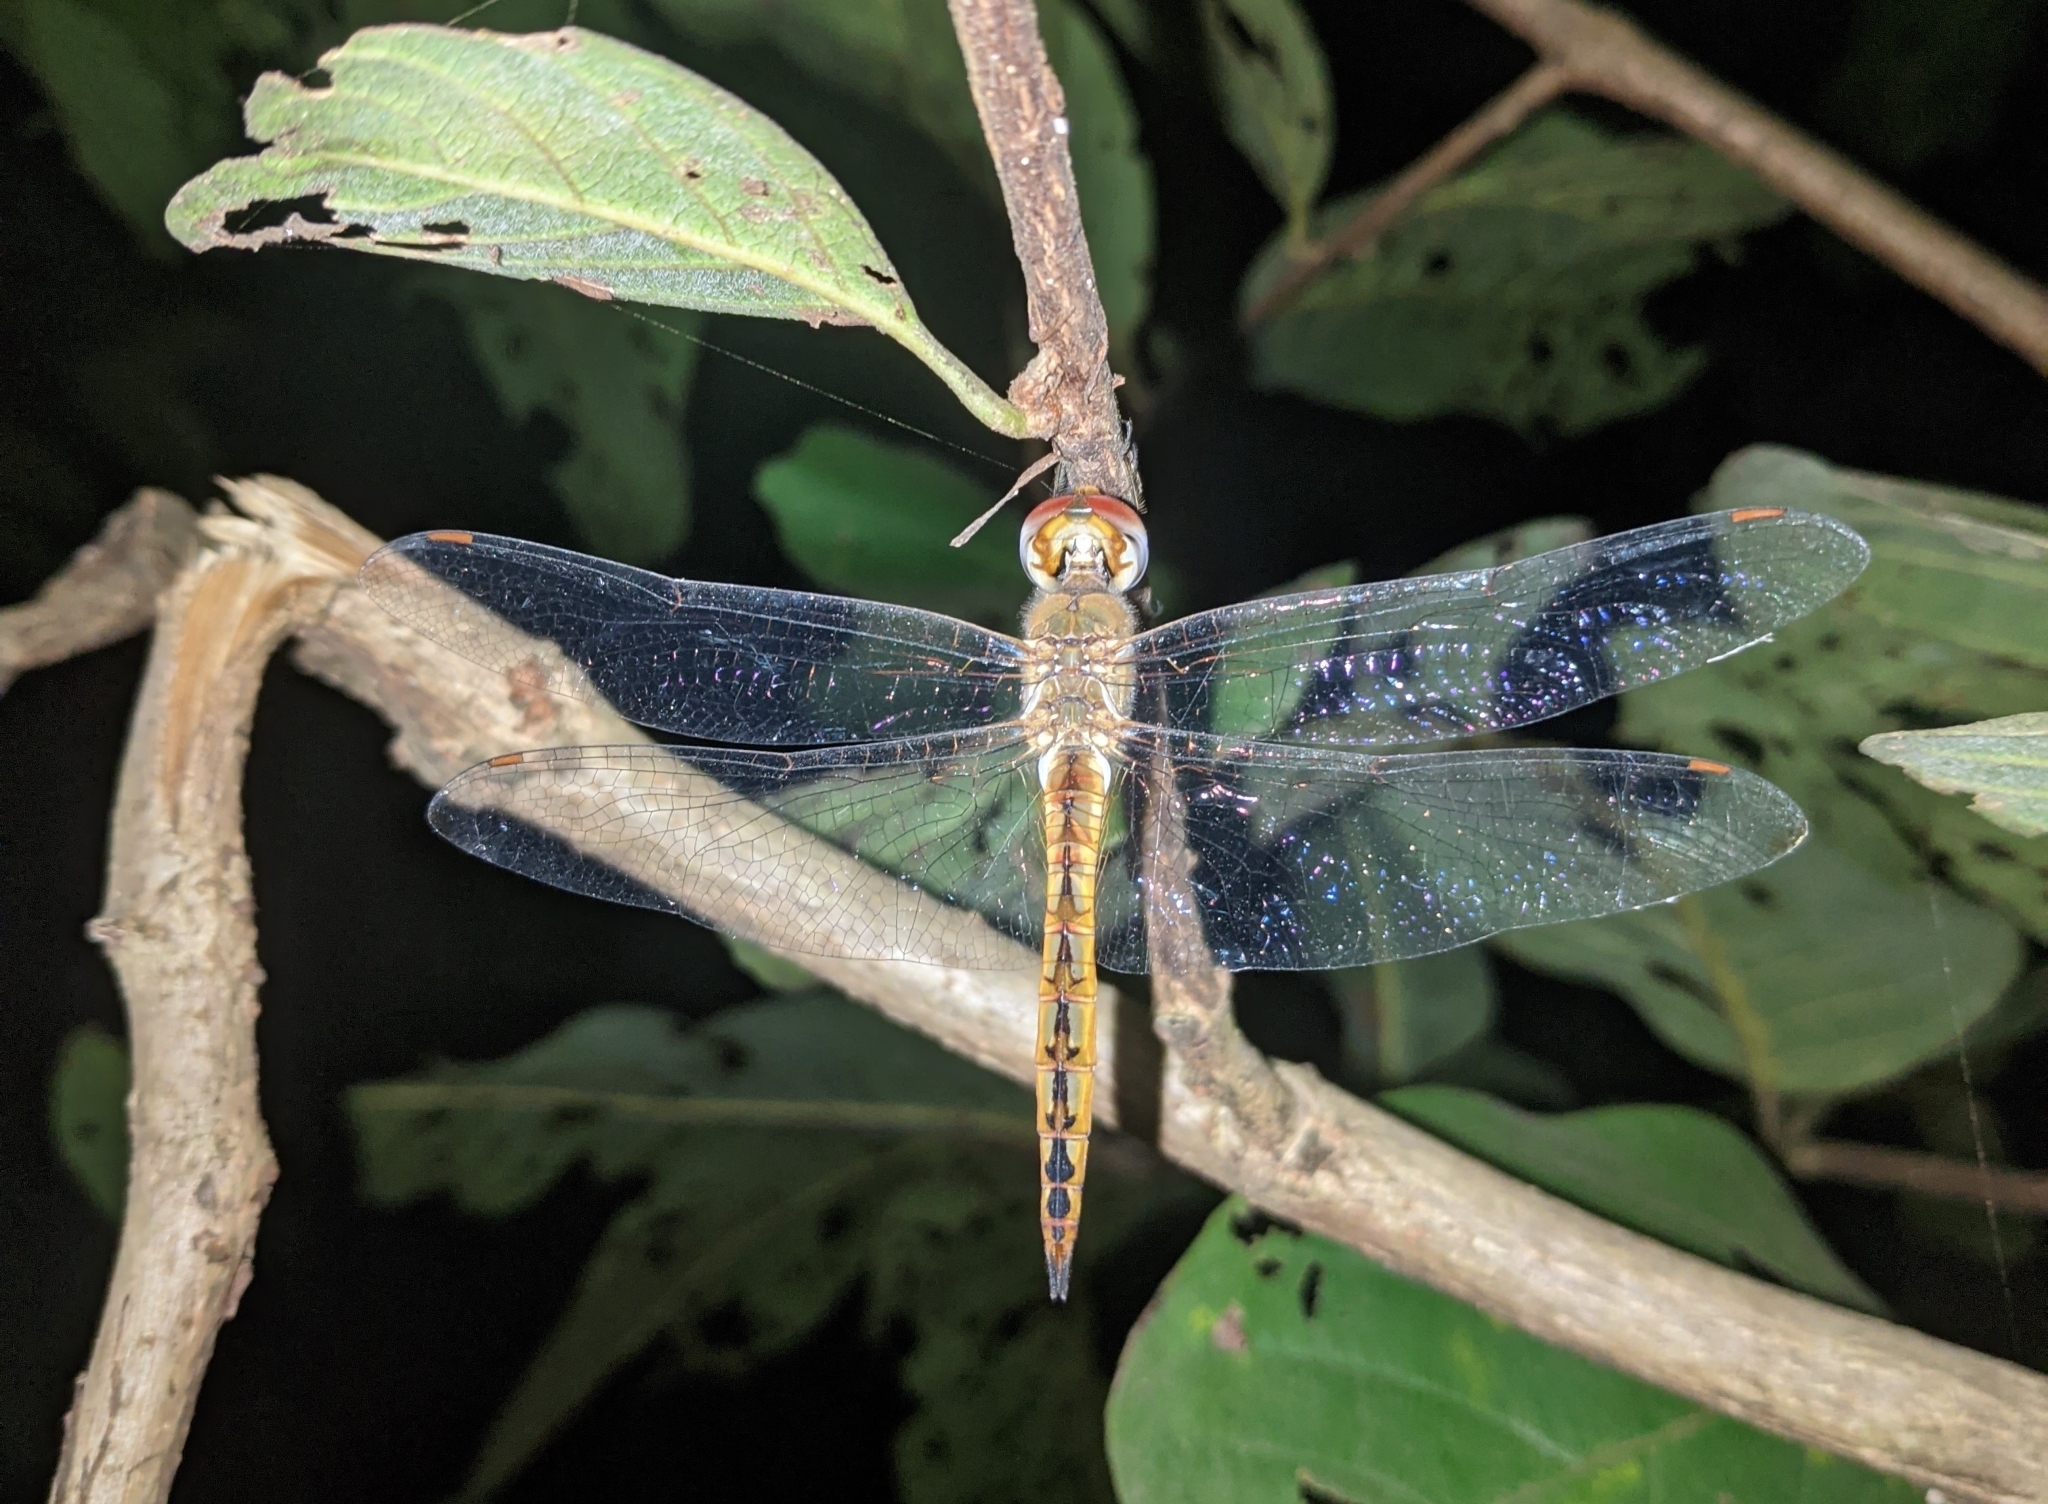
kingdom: Animalia
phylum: Arthropoda
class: Insecta
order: Odonata
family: Libellulidae
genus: Pantala
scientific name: Pantala flavescens
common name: Wandering glider
